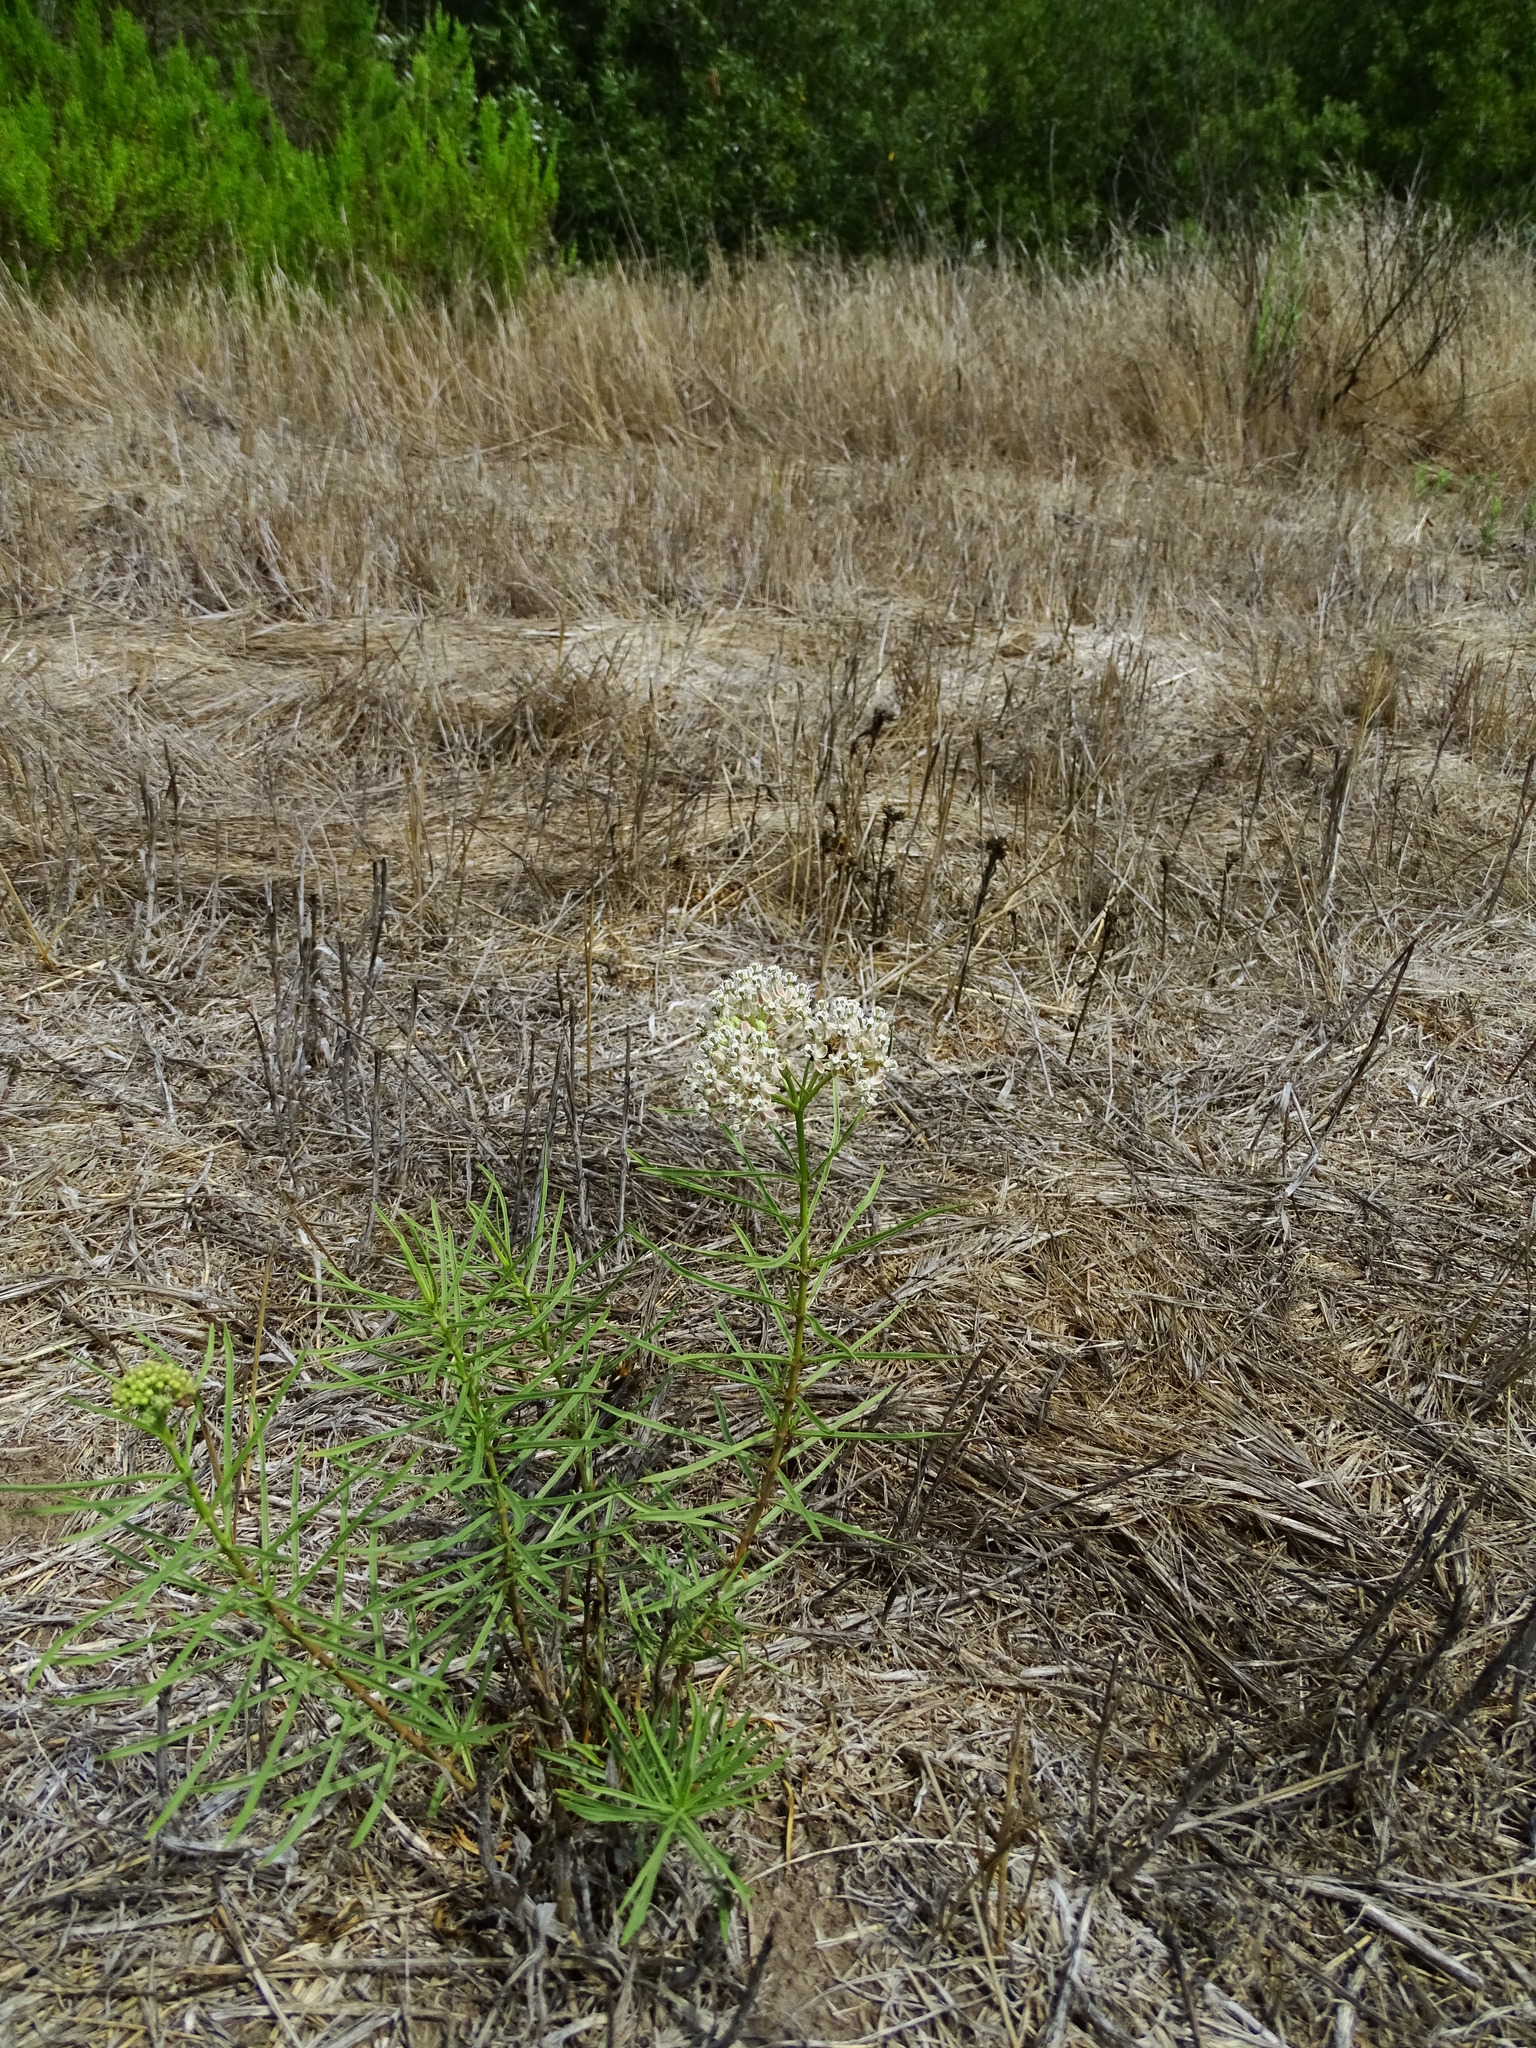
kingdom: Plantae
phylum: Tracheophyta
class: Magnoliopsida
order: Gentianales
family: Apocynaceae
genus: Asclepias
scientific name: Asclepias fascicularis
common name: Mexican milkweed
